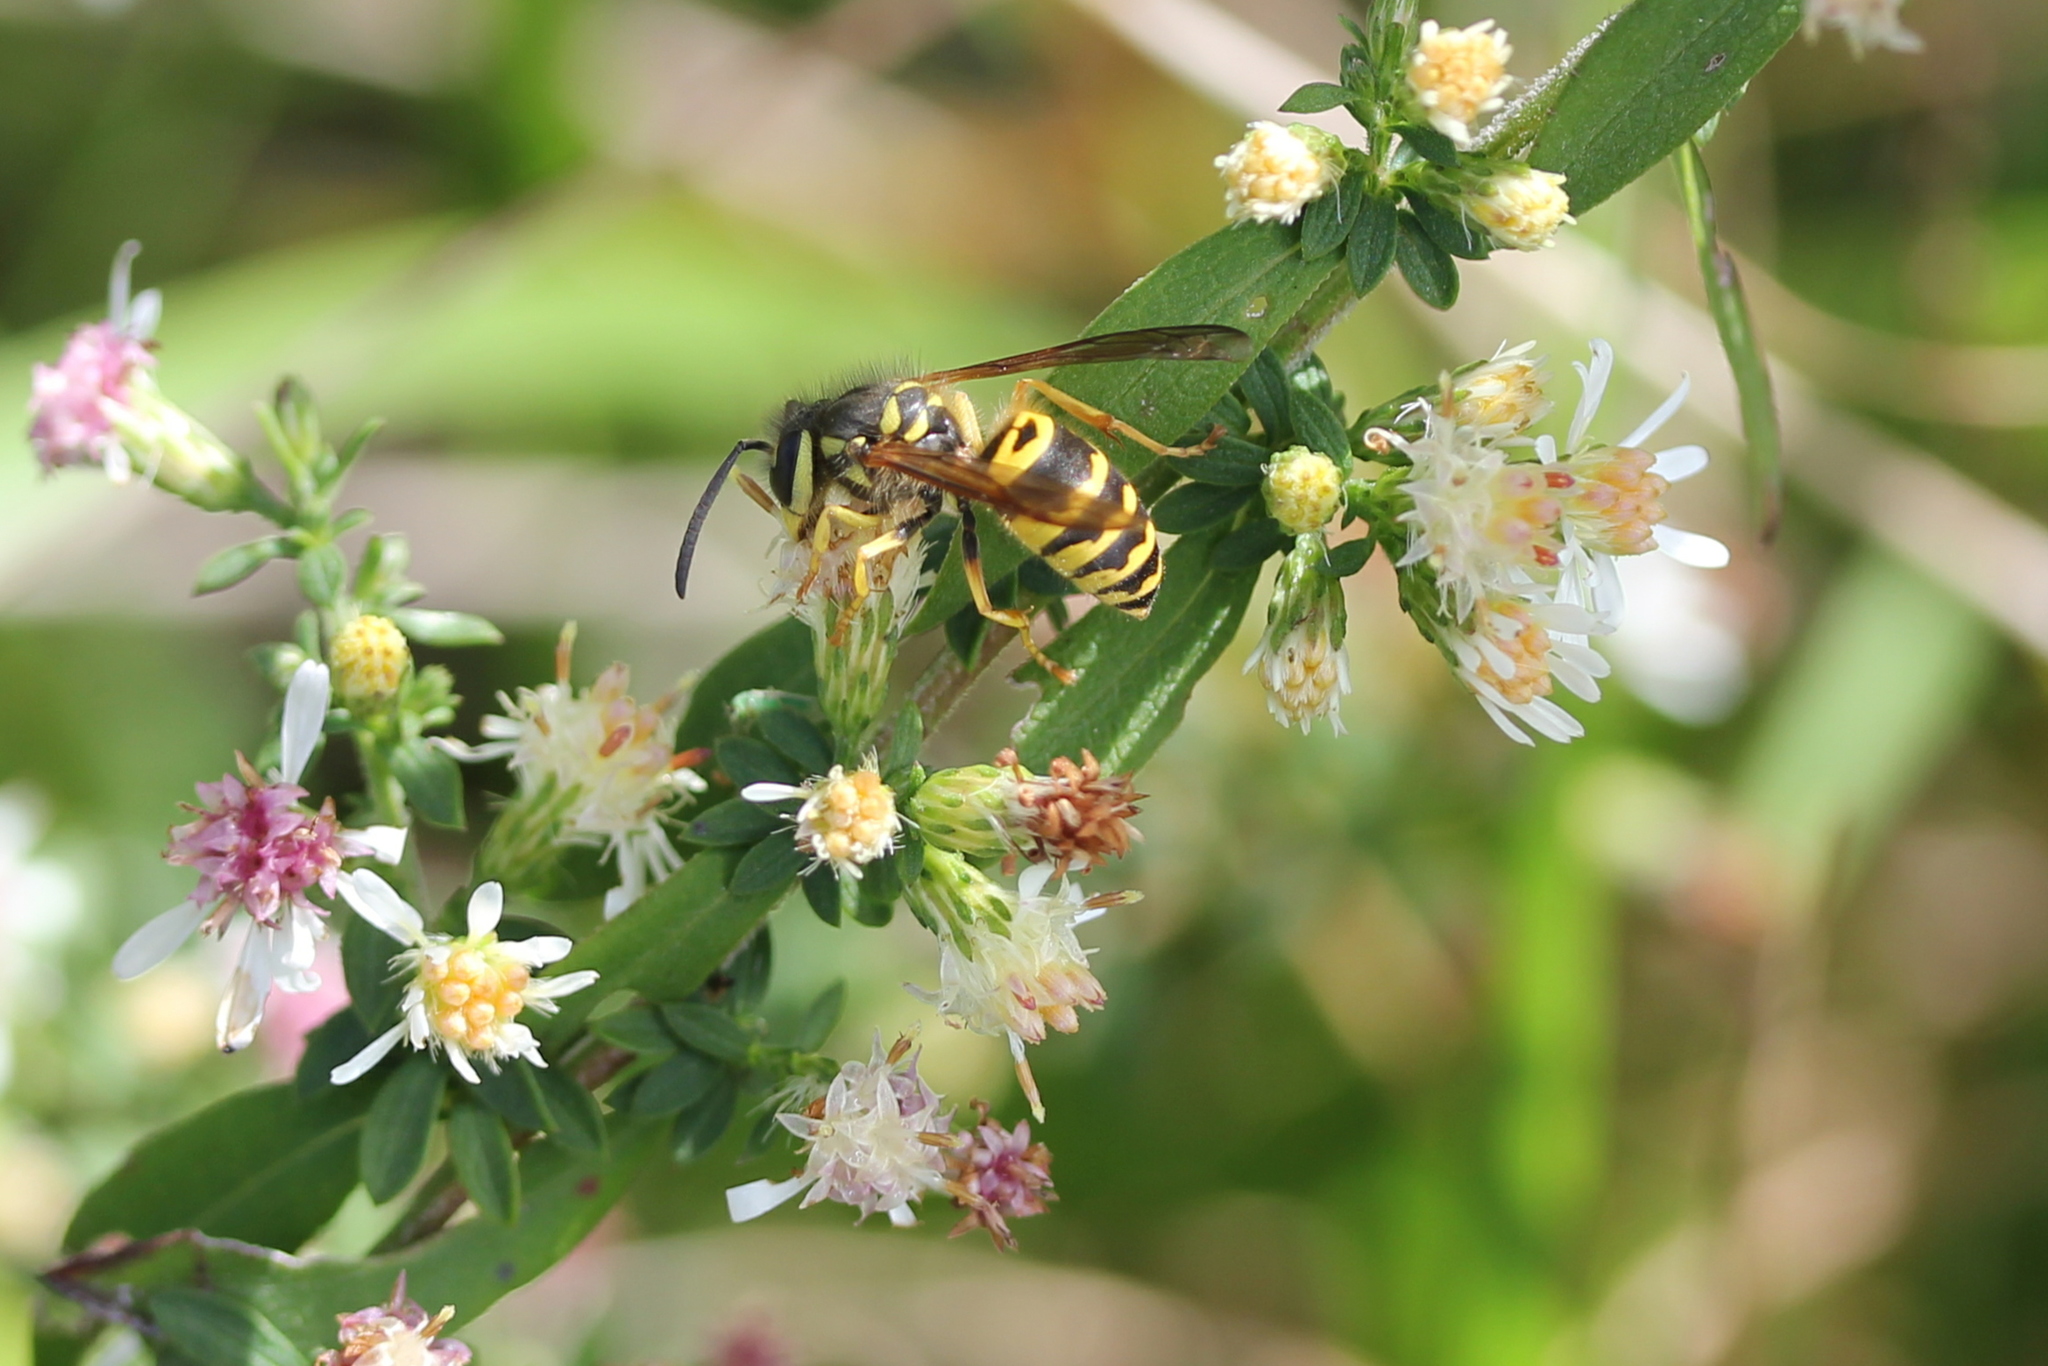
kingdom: Animalia
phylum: Arthropoda
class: Insecta
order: Hymenoptera
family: Vespidae
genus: Vespula
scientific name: Vespula maculifrons
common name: Eastern yellowjacket
